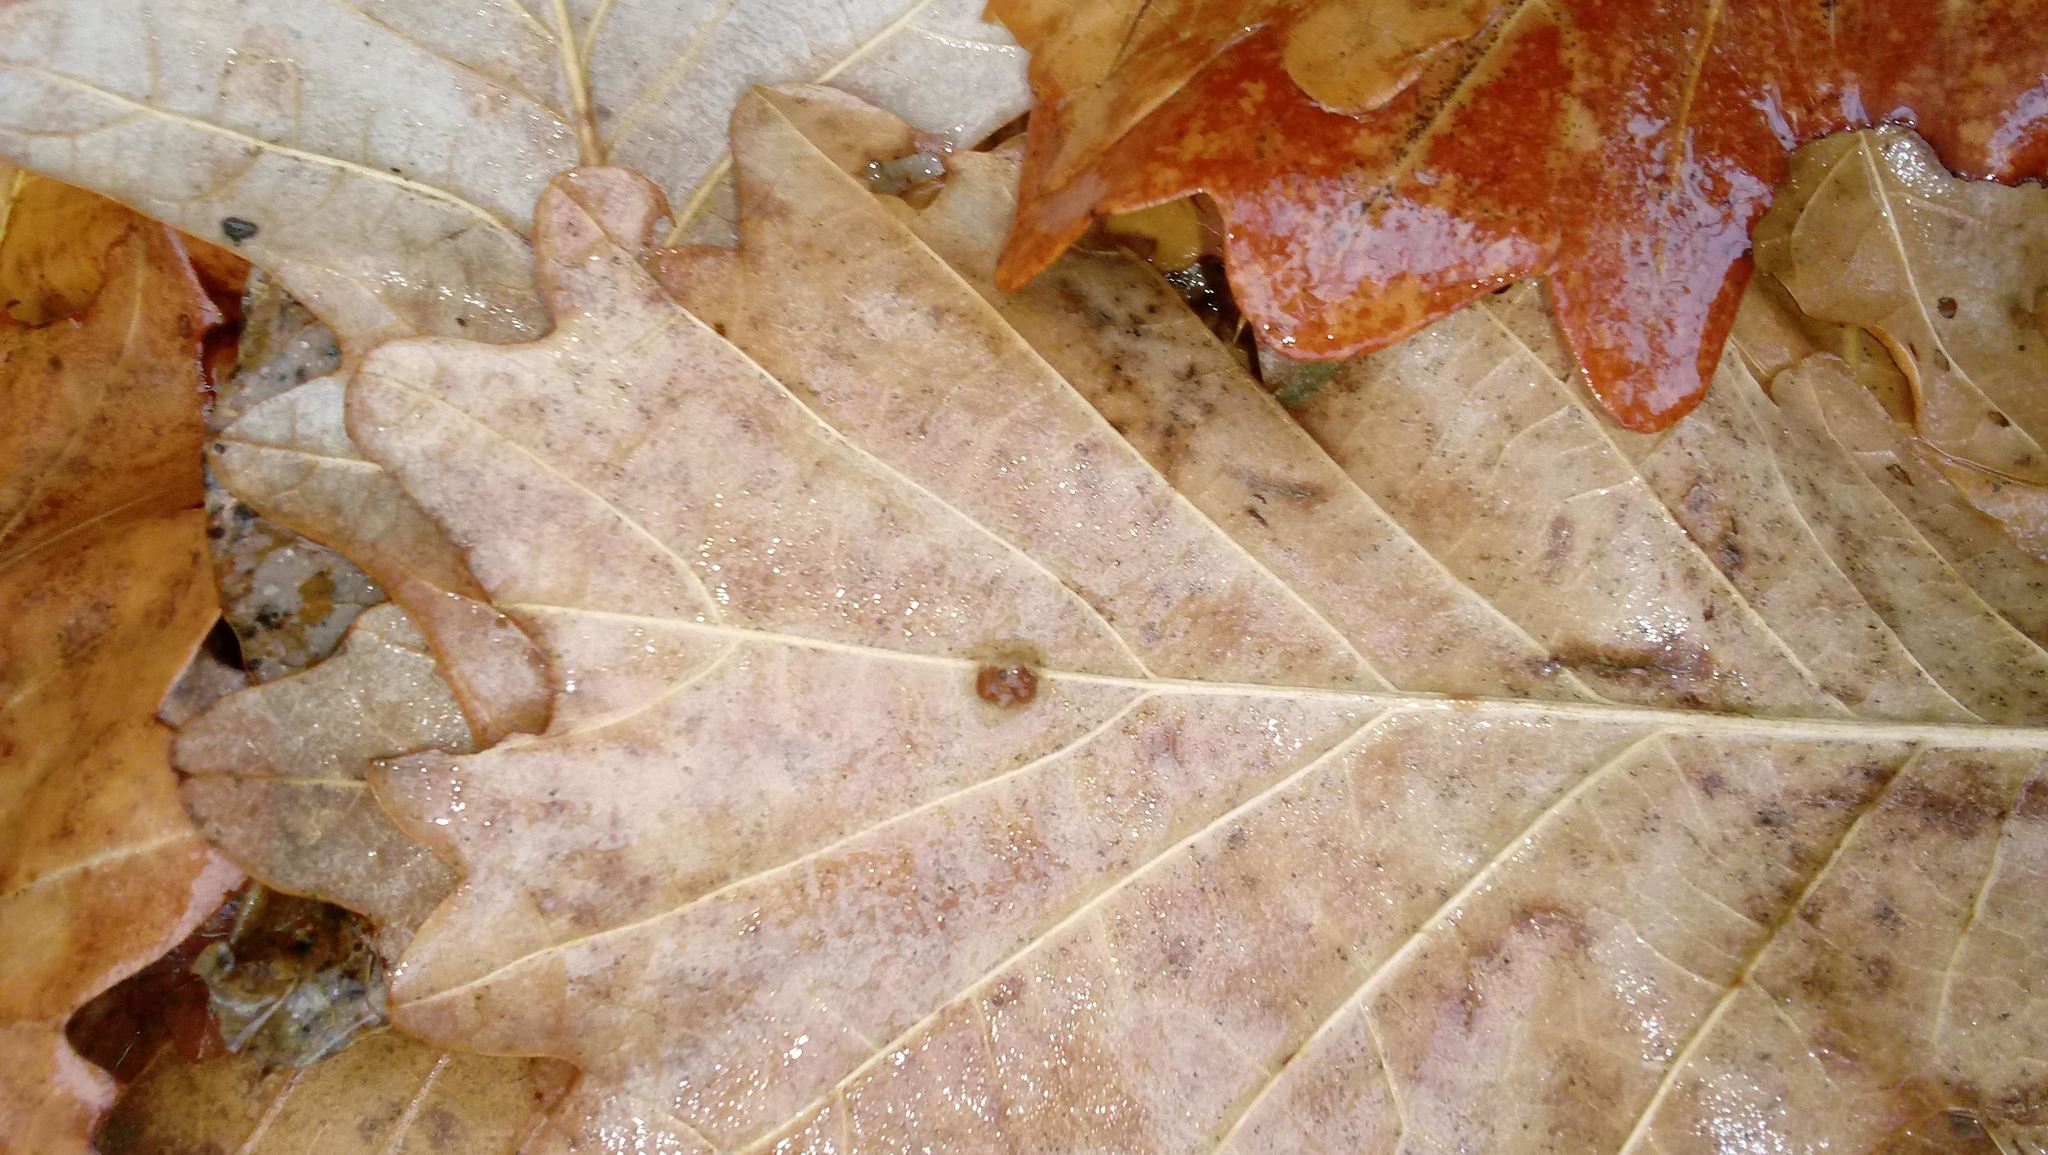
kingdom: Animalia
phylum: Arthropoda
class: Insecta
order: Hymenoptera
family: Cynipidae
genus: Andricus
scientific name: Andricus Druon ignotum
